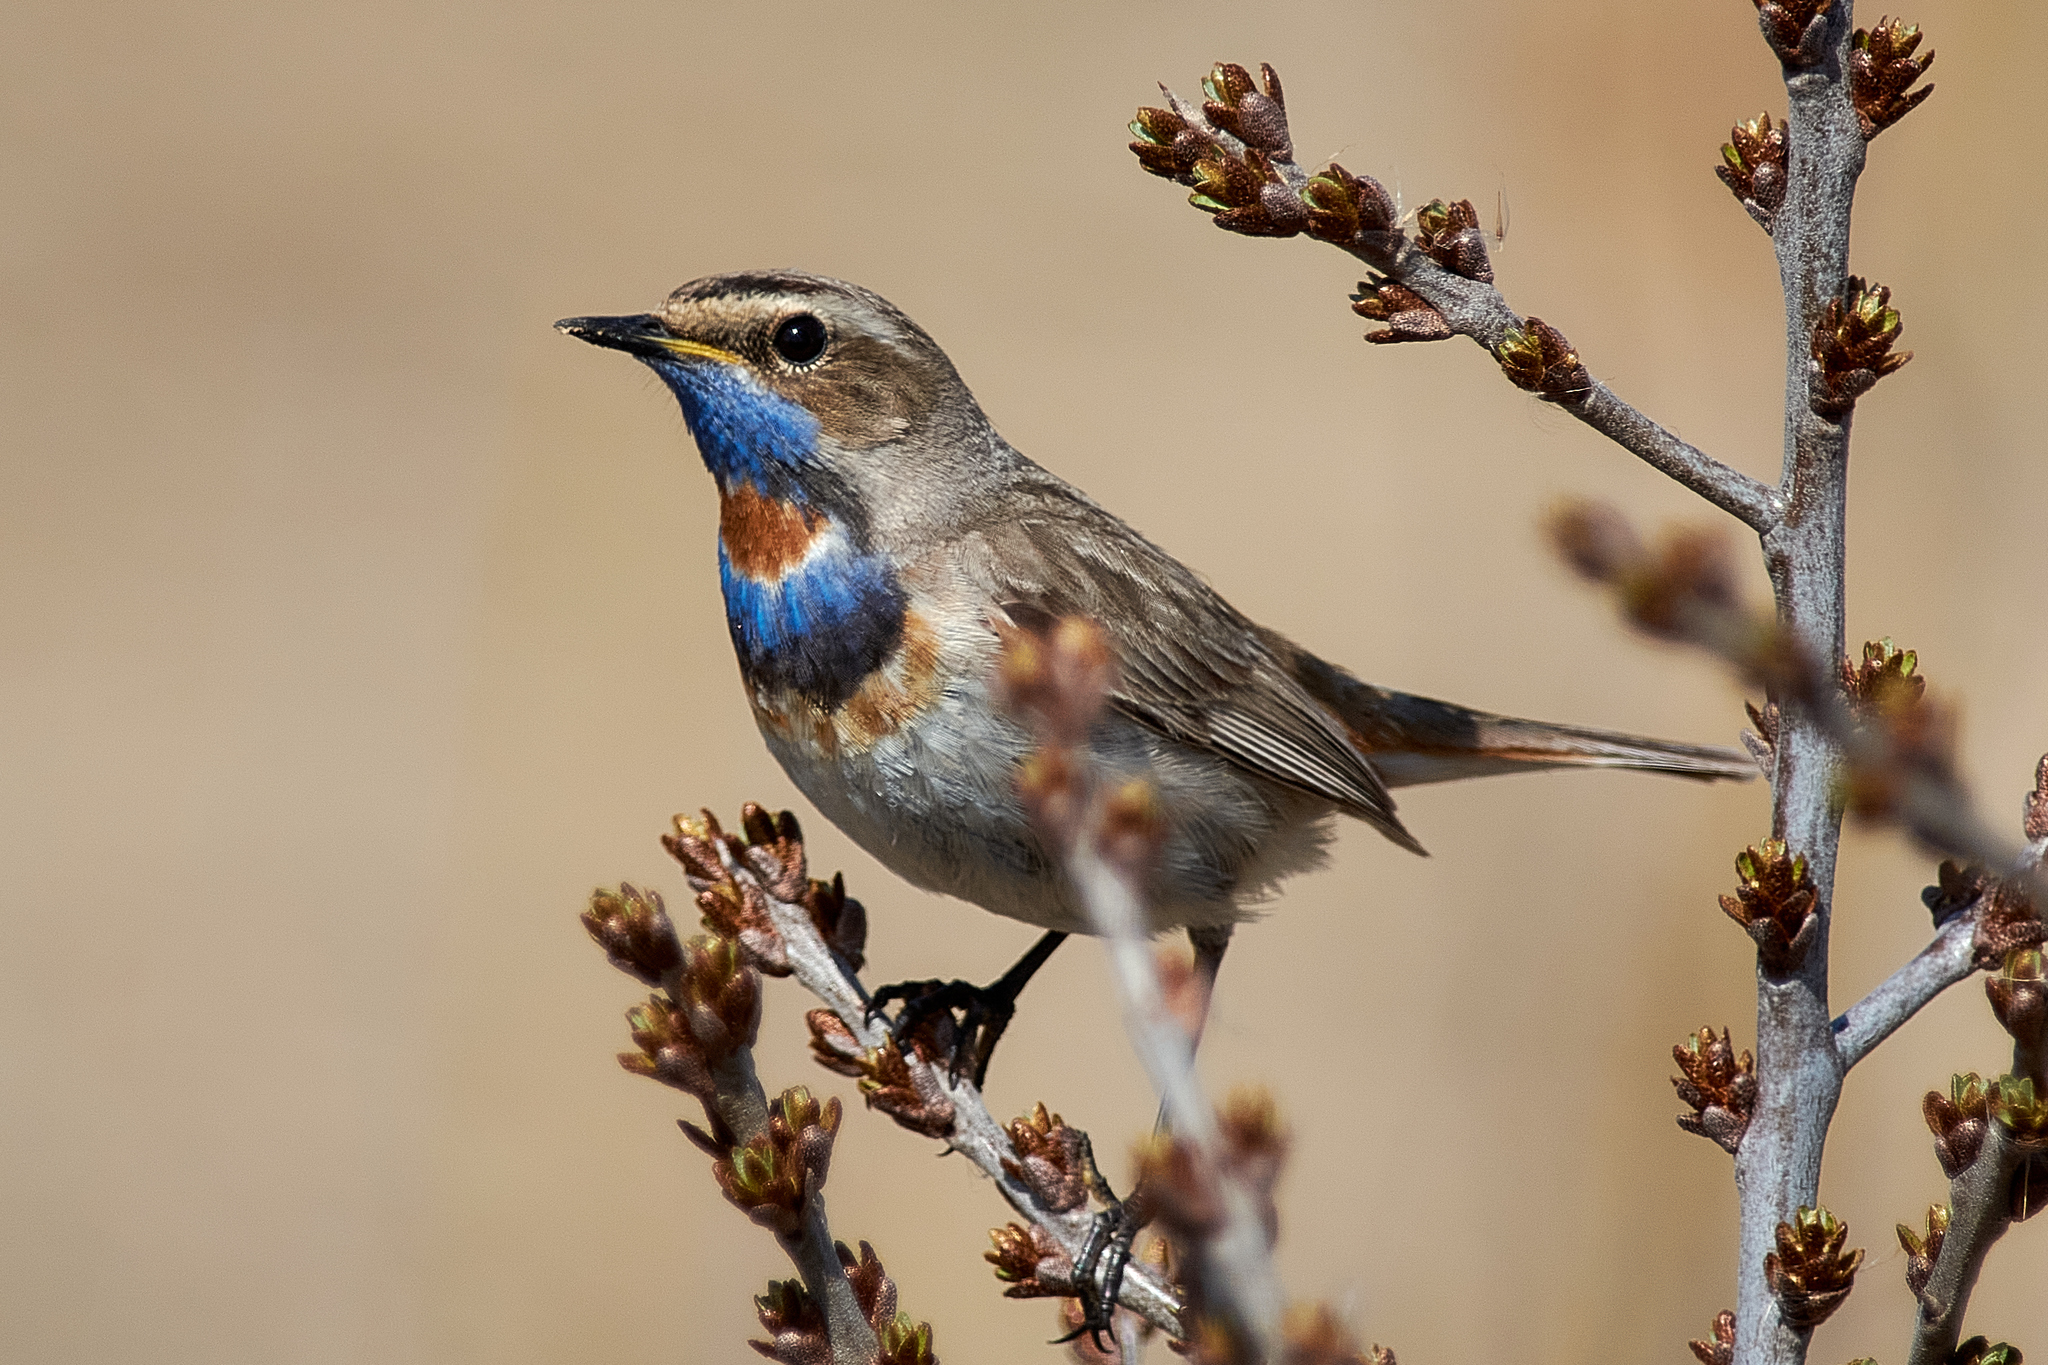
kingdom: Animalia
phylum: Chordata
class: Aves
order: Passeriformes
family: Muscicapidae
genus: Luscinia
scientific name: Luscinia svecica
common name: Bluethroat
